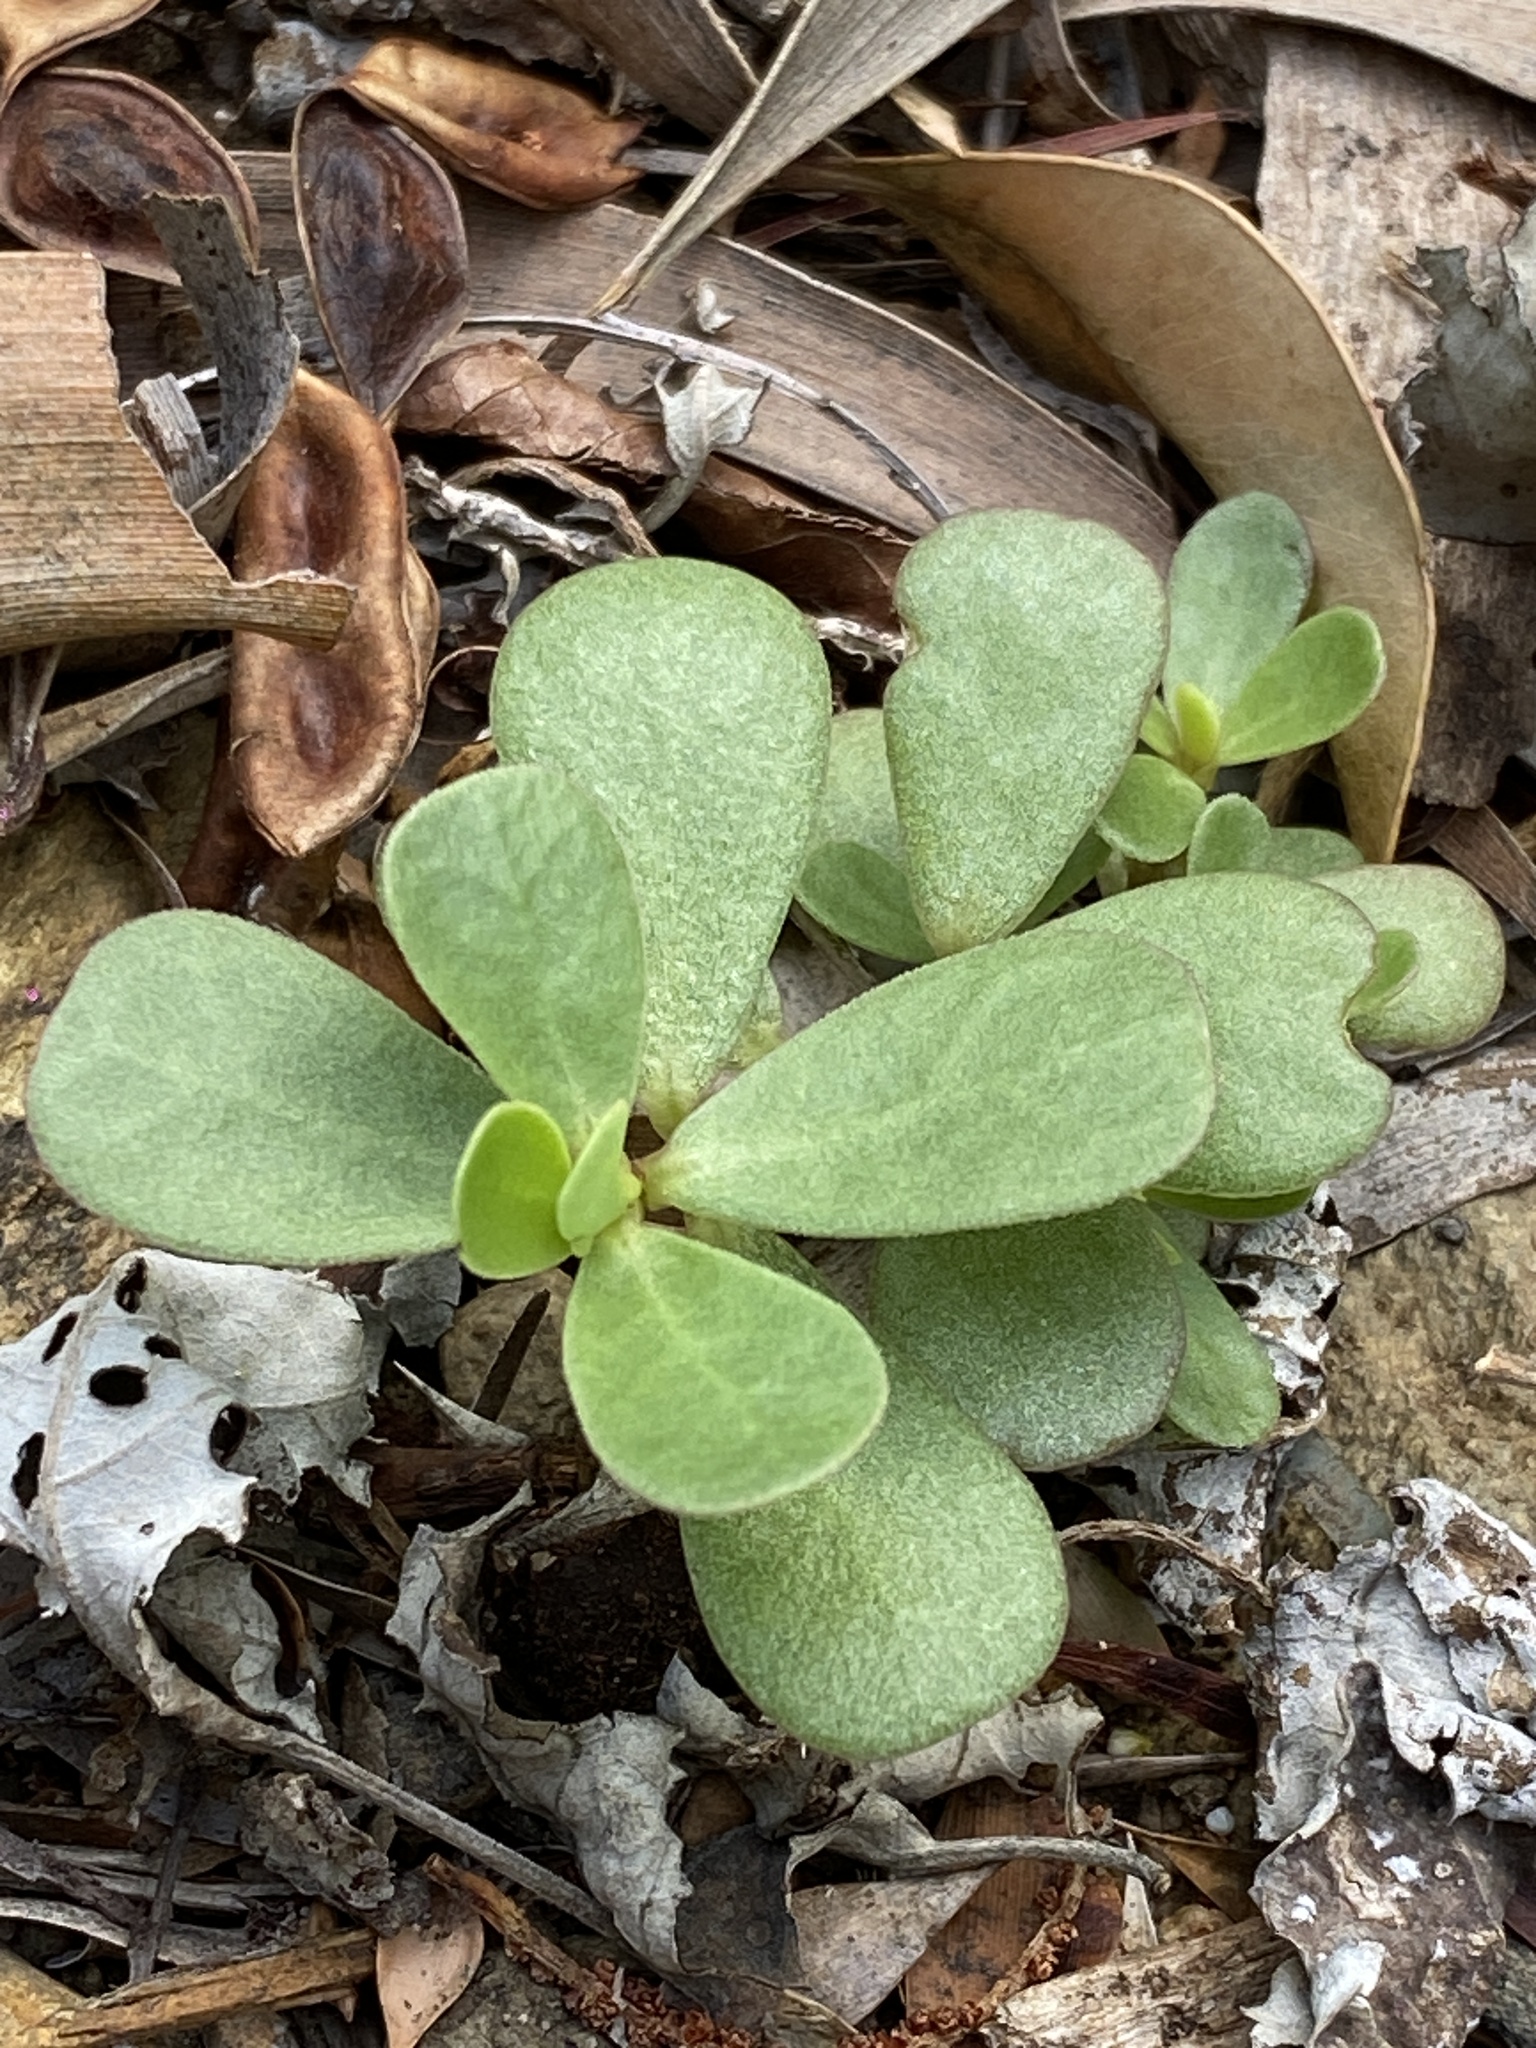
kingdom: Plantae
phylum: Tracheophyta
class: Magnoliopsida
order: Caryophyllales
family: Portulacaceae
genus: Portulaca
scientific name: Portulaca oleracea
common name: Common purslane
